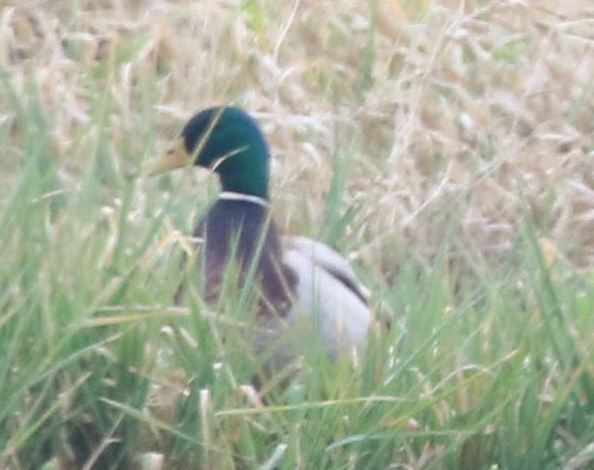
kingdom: Animalia
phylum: Chordata
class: Aves
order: Anseriformes
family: Anatidae
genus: Anas
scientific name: Anas platyrhynchos
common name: Mallard
